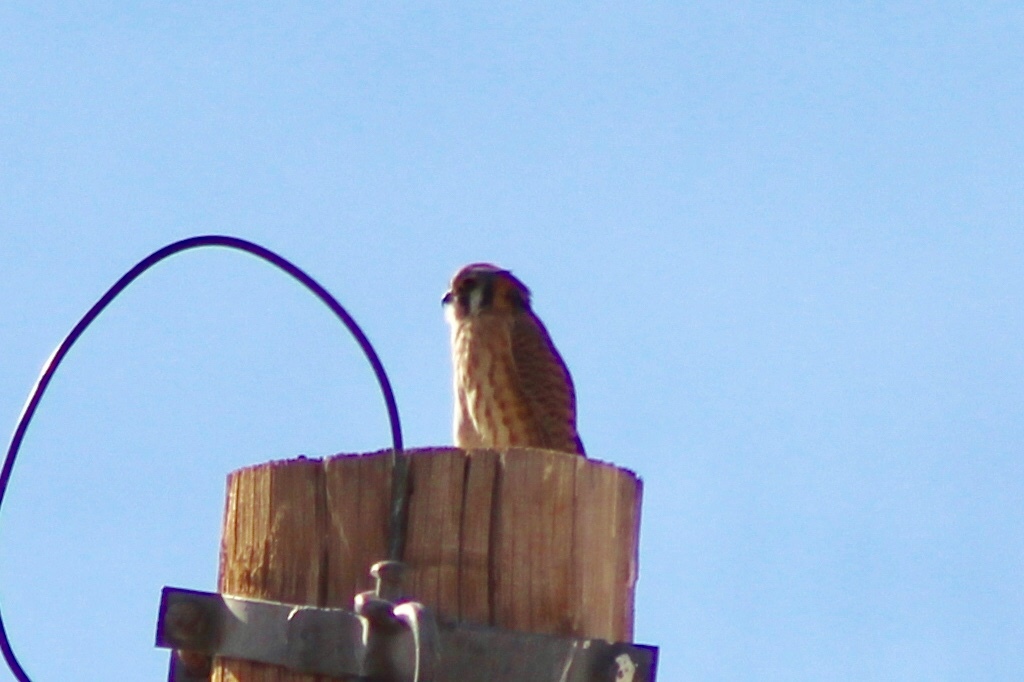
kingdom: Animalia
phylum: Chordata
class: Aves
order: Falconiformes
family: Falconidae
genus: Falco
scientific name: Falco sparverius
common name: American kestrel
